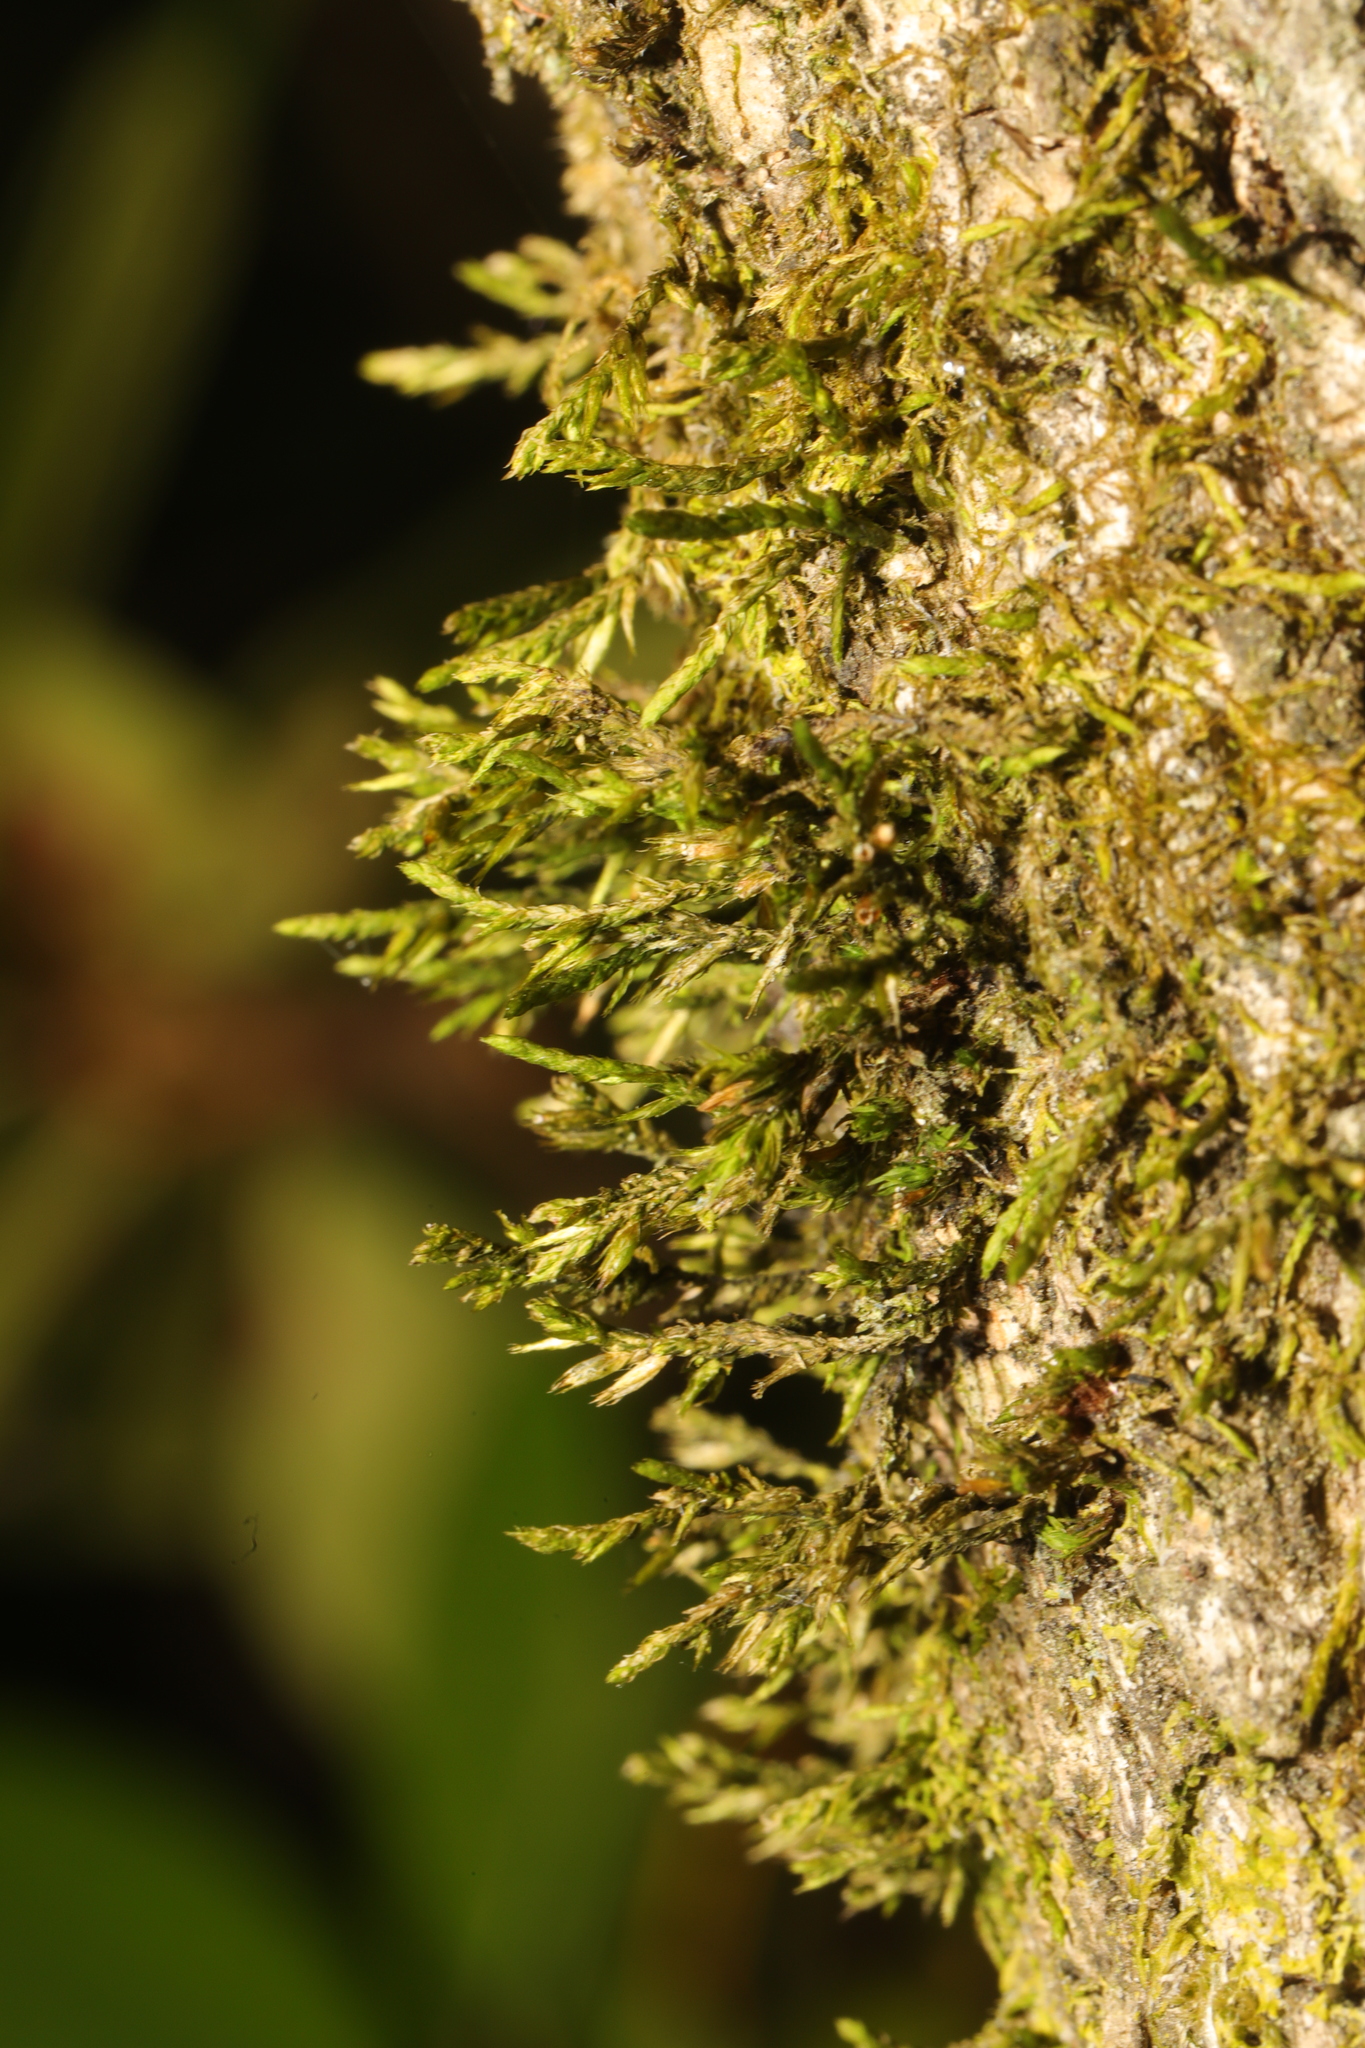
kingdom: Plantae
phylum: Bryophyta
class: Bryopsida
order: Hypnales
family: Cryphaeaceae
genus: Cryphaea
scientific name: Cryphaea heteromalla
